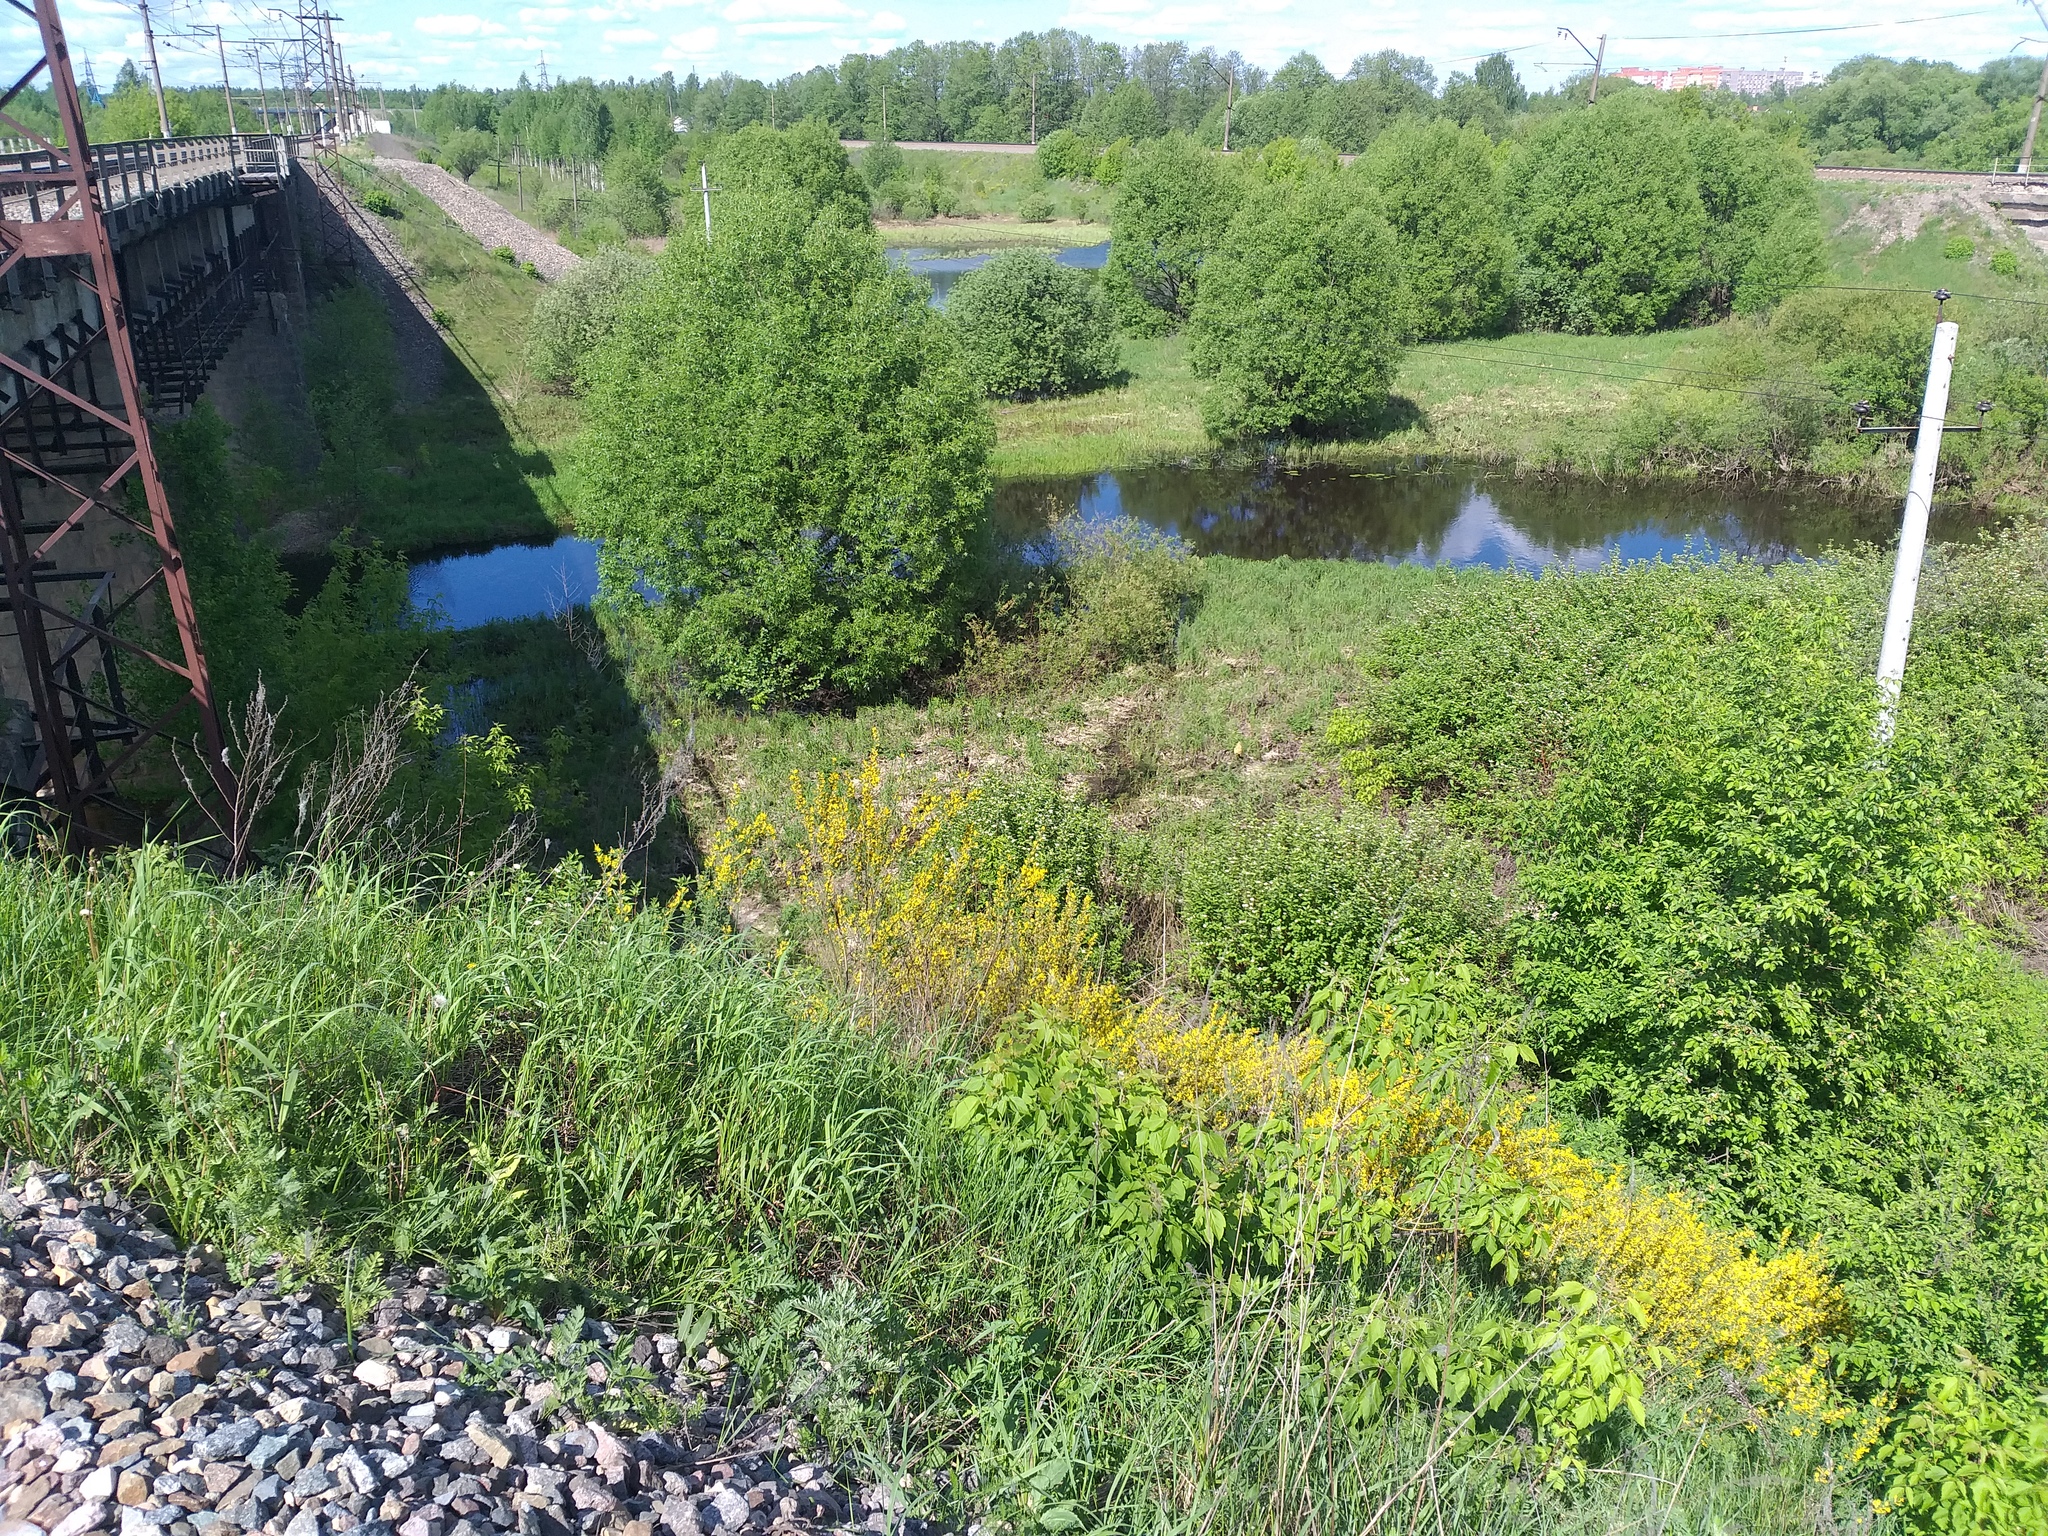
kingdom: Plantae
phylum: Tracheophyta
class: Magnoliopsida
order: Fabales
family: Fabaceae
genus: Chamaecytisus
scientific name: Chamaecytisus ruthenicus
